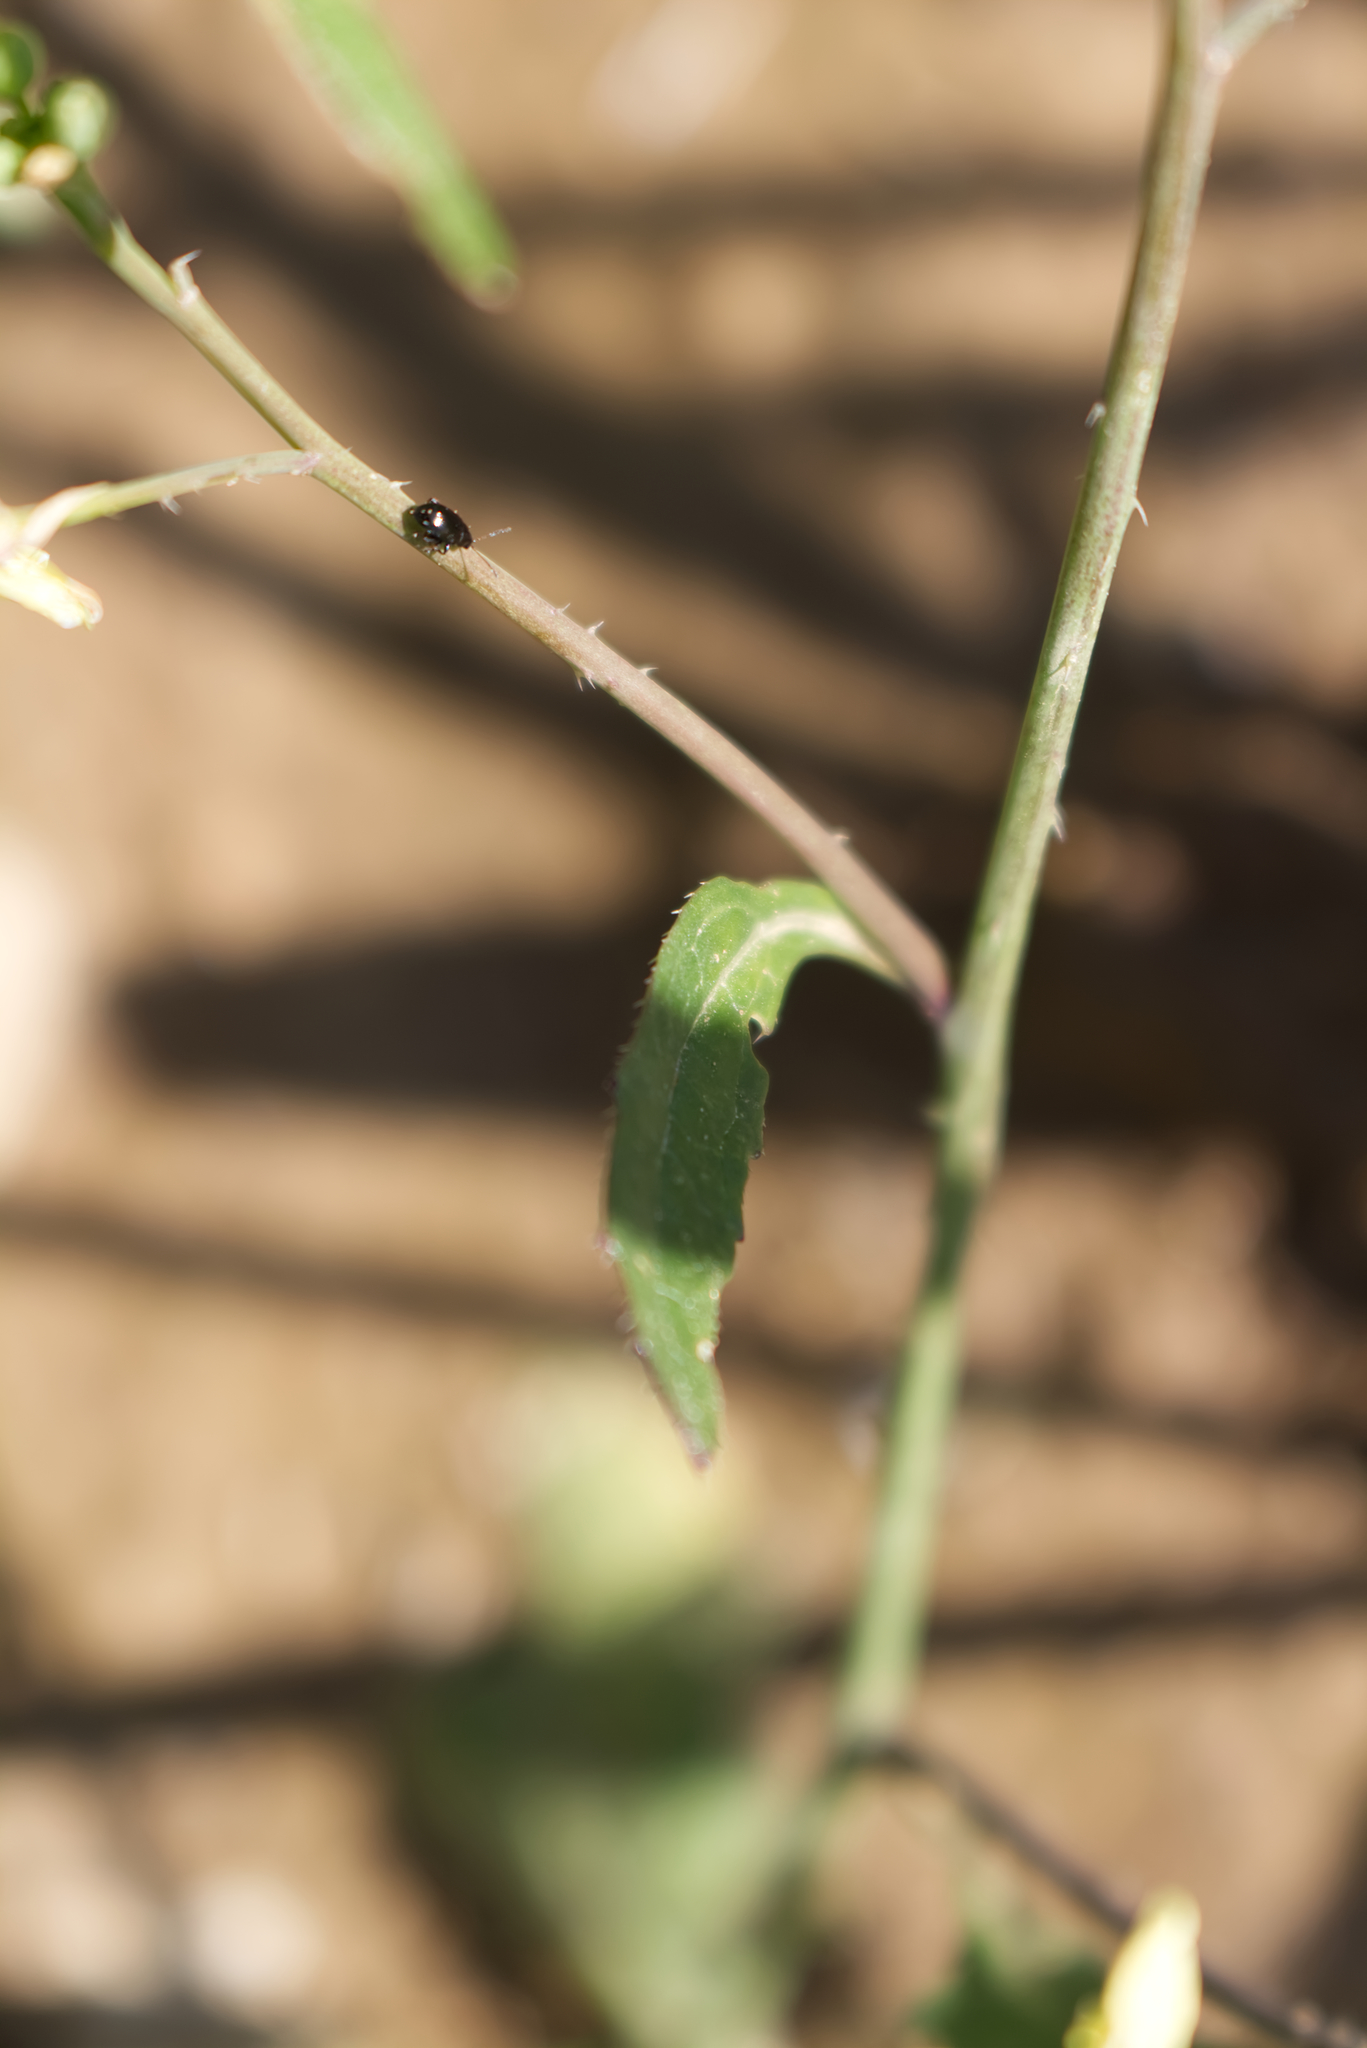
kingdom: Plantae
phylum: Tracheophyta
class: Magnoliopsida
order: Brassicales
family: Brassicaceae
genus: Raphanus
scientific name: Raphanus raphanistrum
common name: Wild radish
